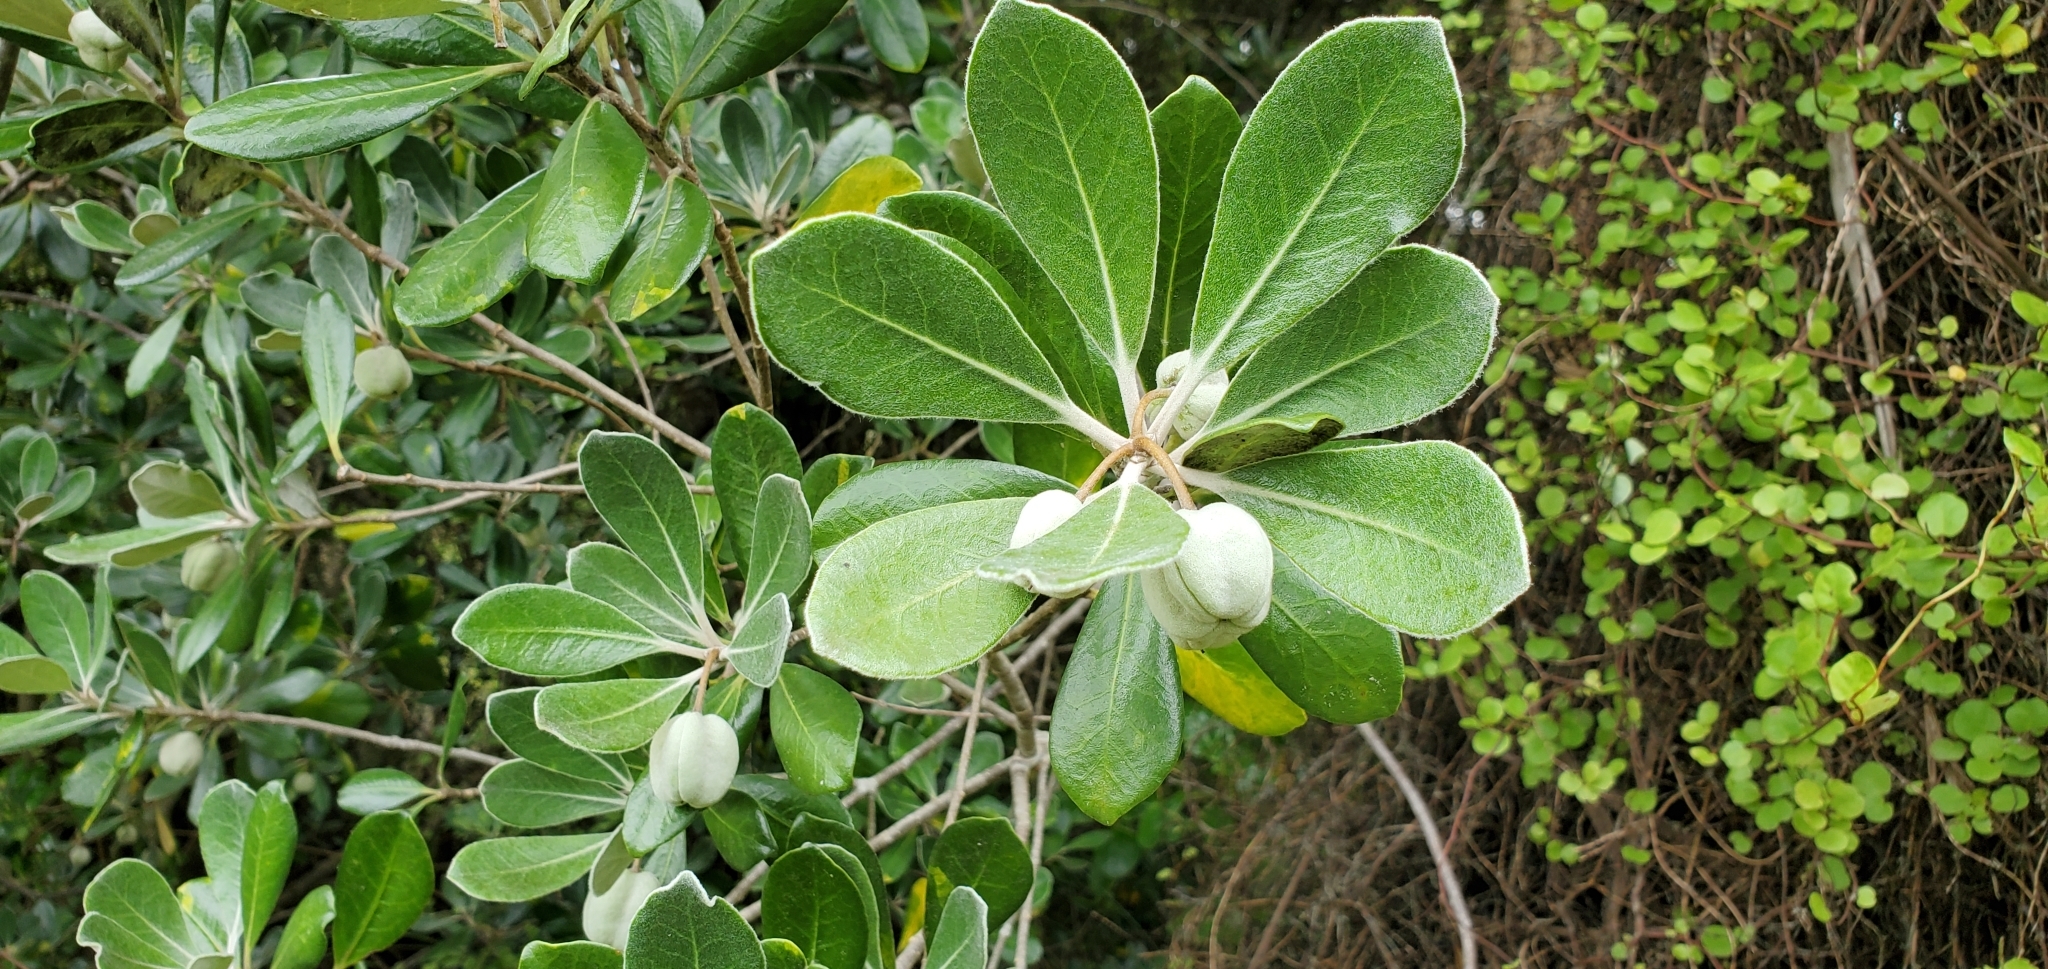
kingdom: Plantae
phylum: Tracheophyta
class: Magnoliopsida
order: Apiales
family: Pittosporaceae
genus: Pittosporum
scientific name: Pittosporum crassifolium
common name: Karo
